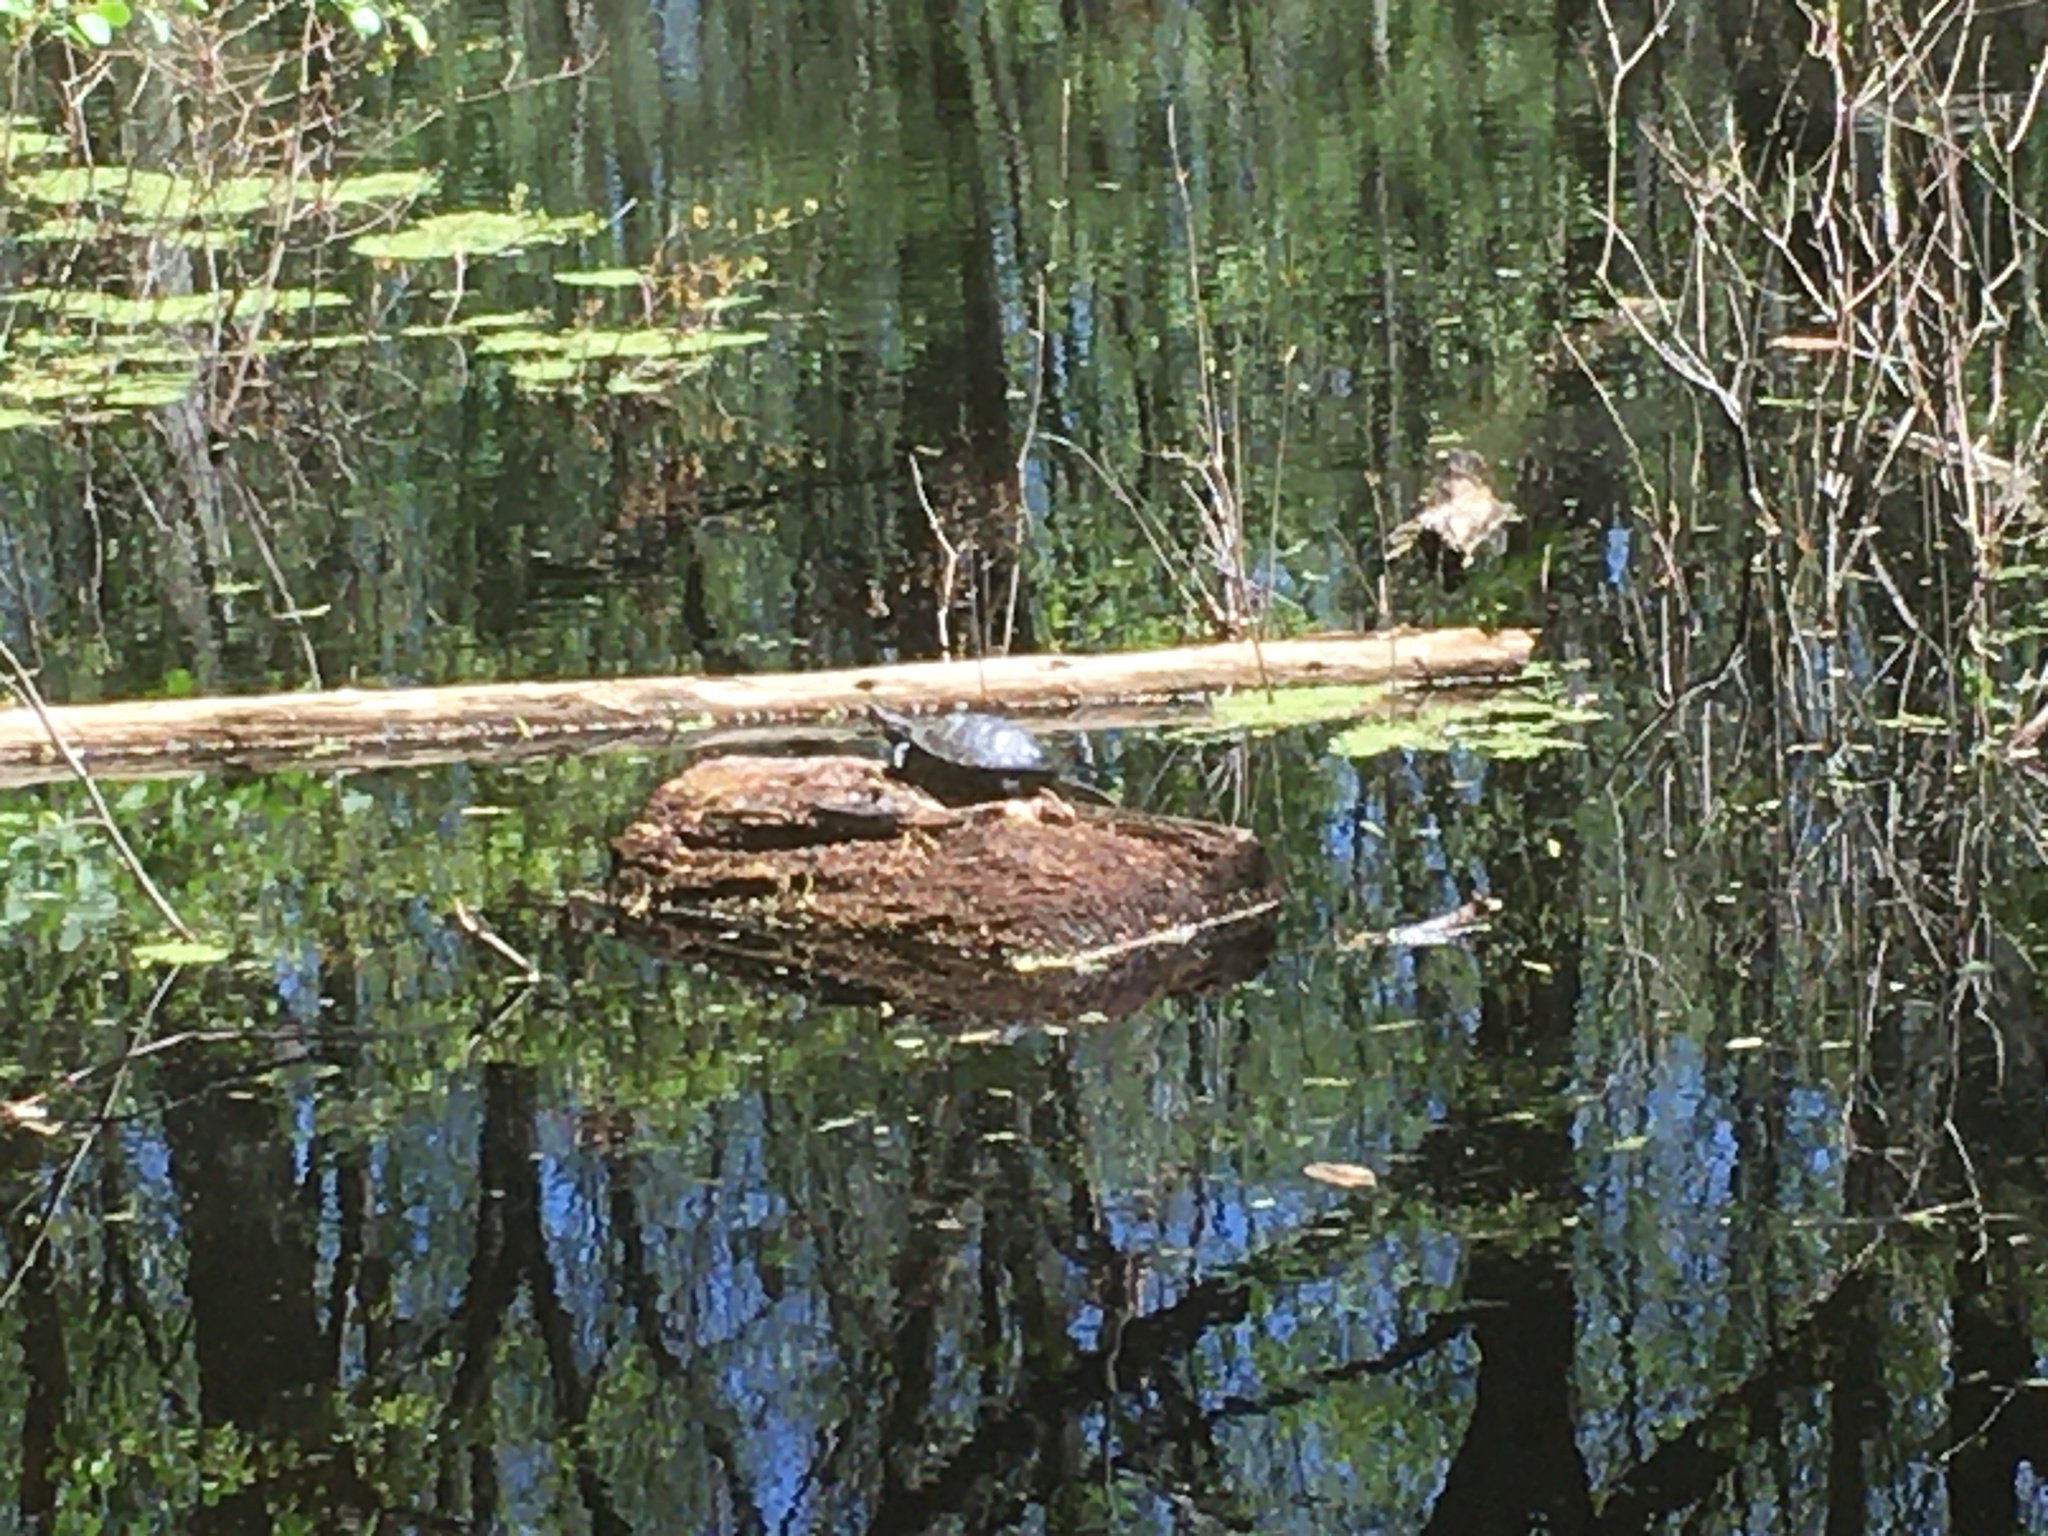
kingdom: Animalia
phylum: Chordata
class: Testudines
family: Emydidae
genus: Trachemys
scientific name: Trachemys scripta
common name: Slider
